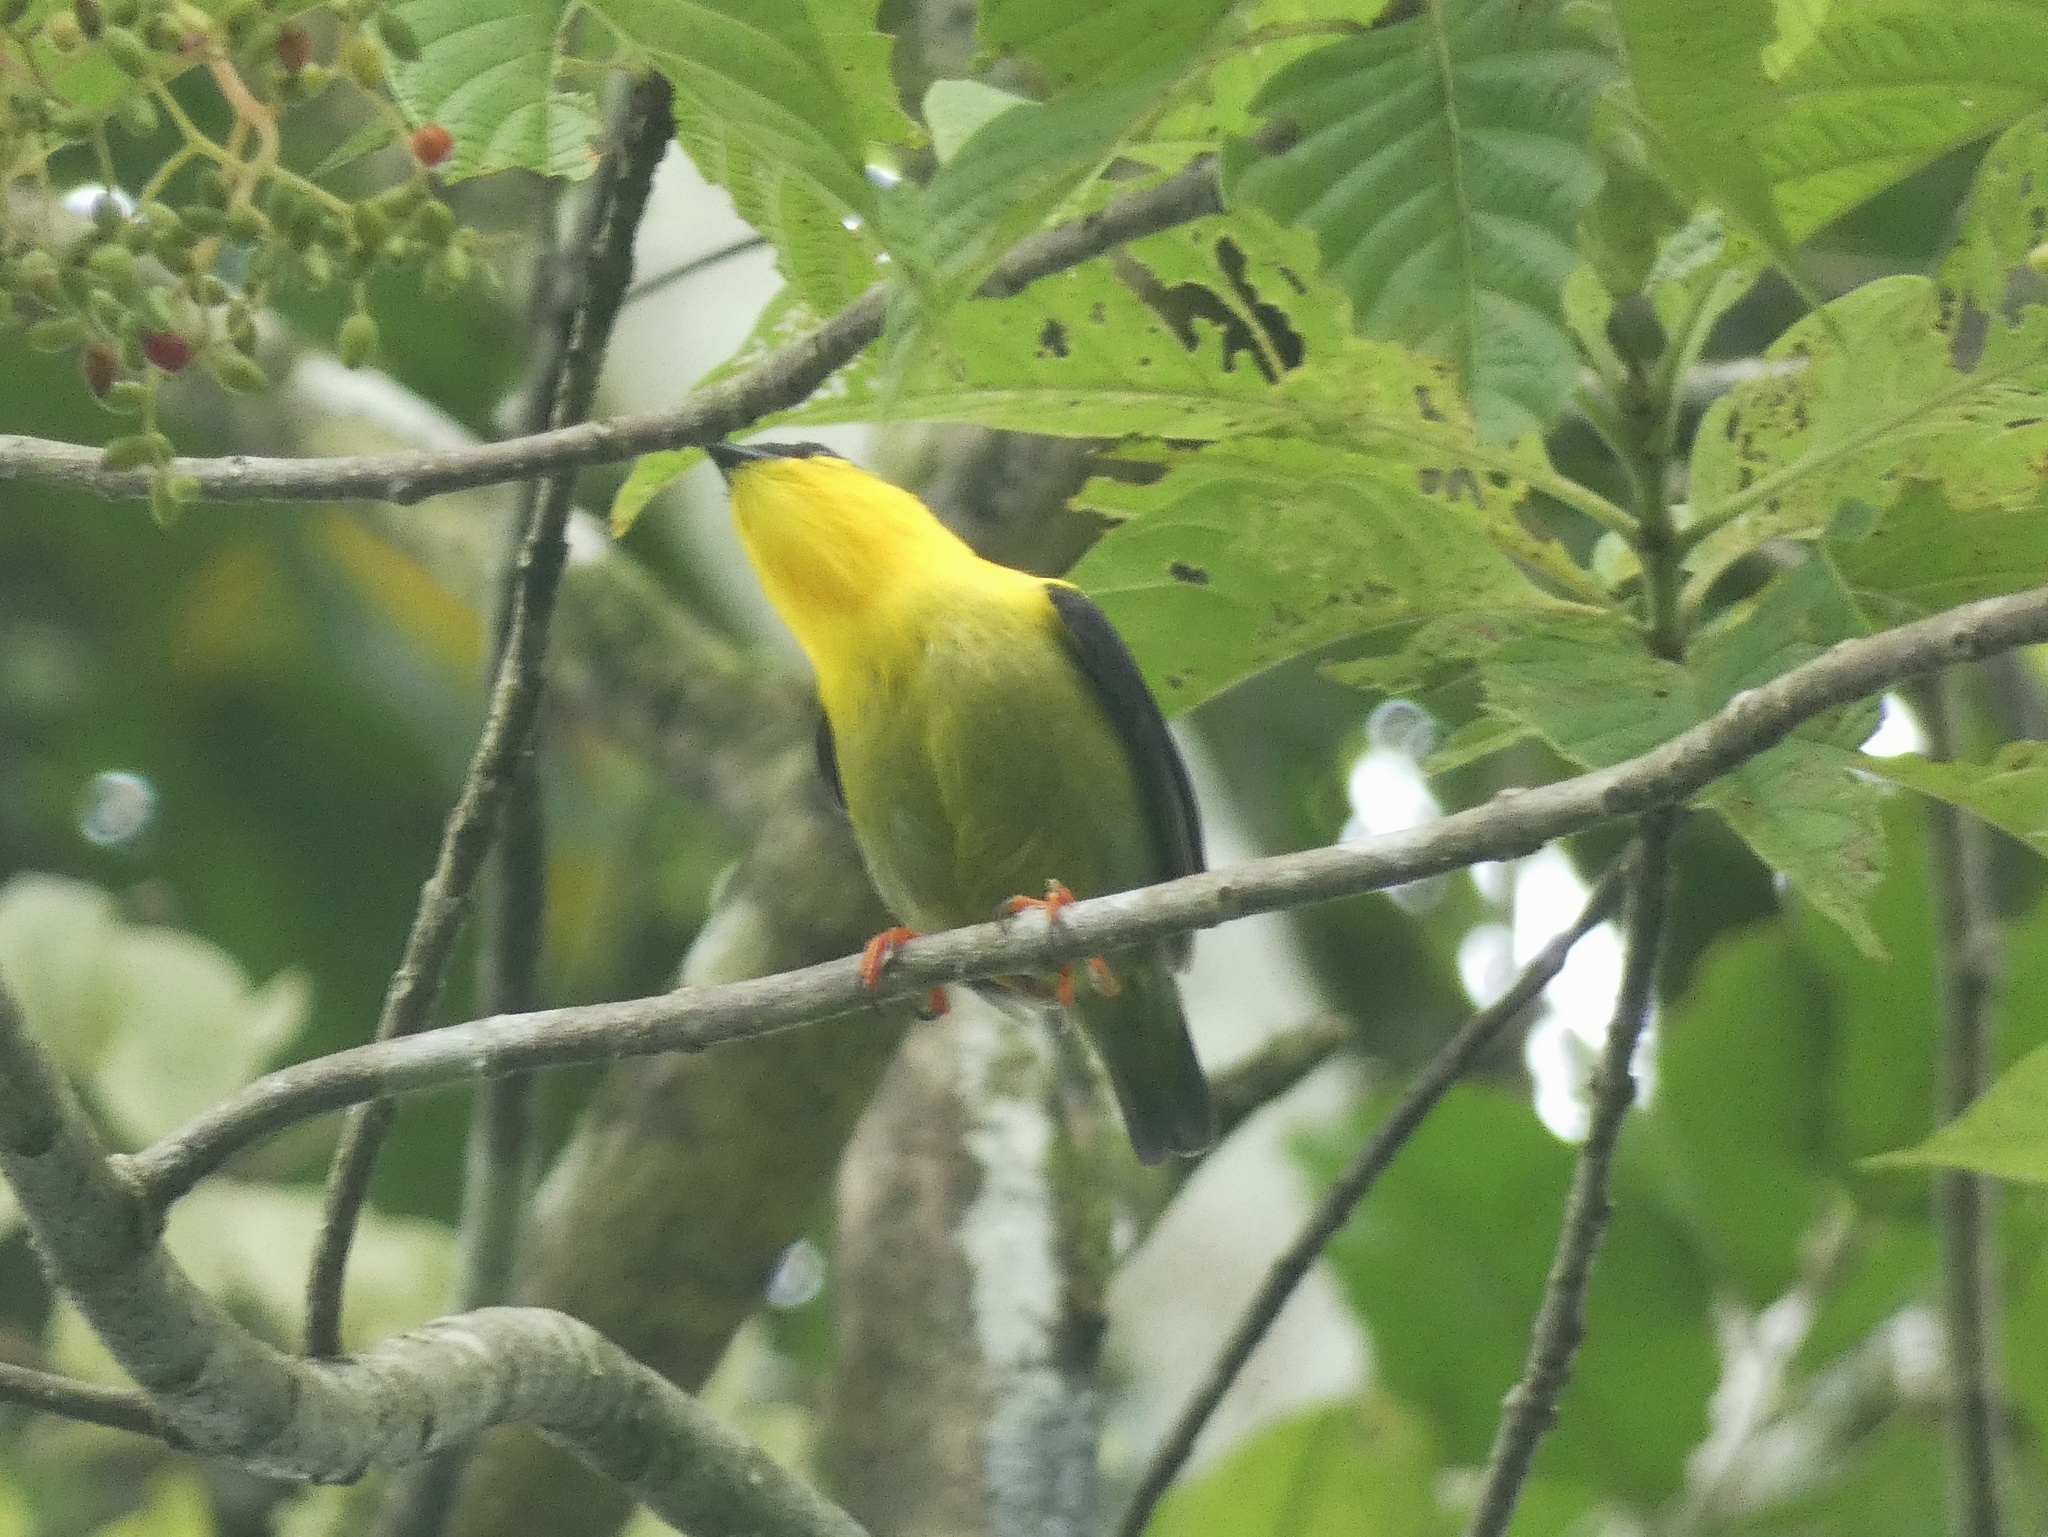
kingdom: Animalia
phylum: Chordata
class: Aves
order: Passeriformes
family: Pipridae
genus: Manacus
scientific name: Manacus vitellinus
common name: Golden-collared manakin
